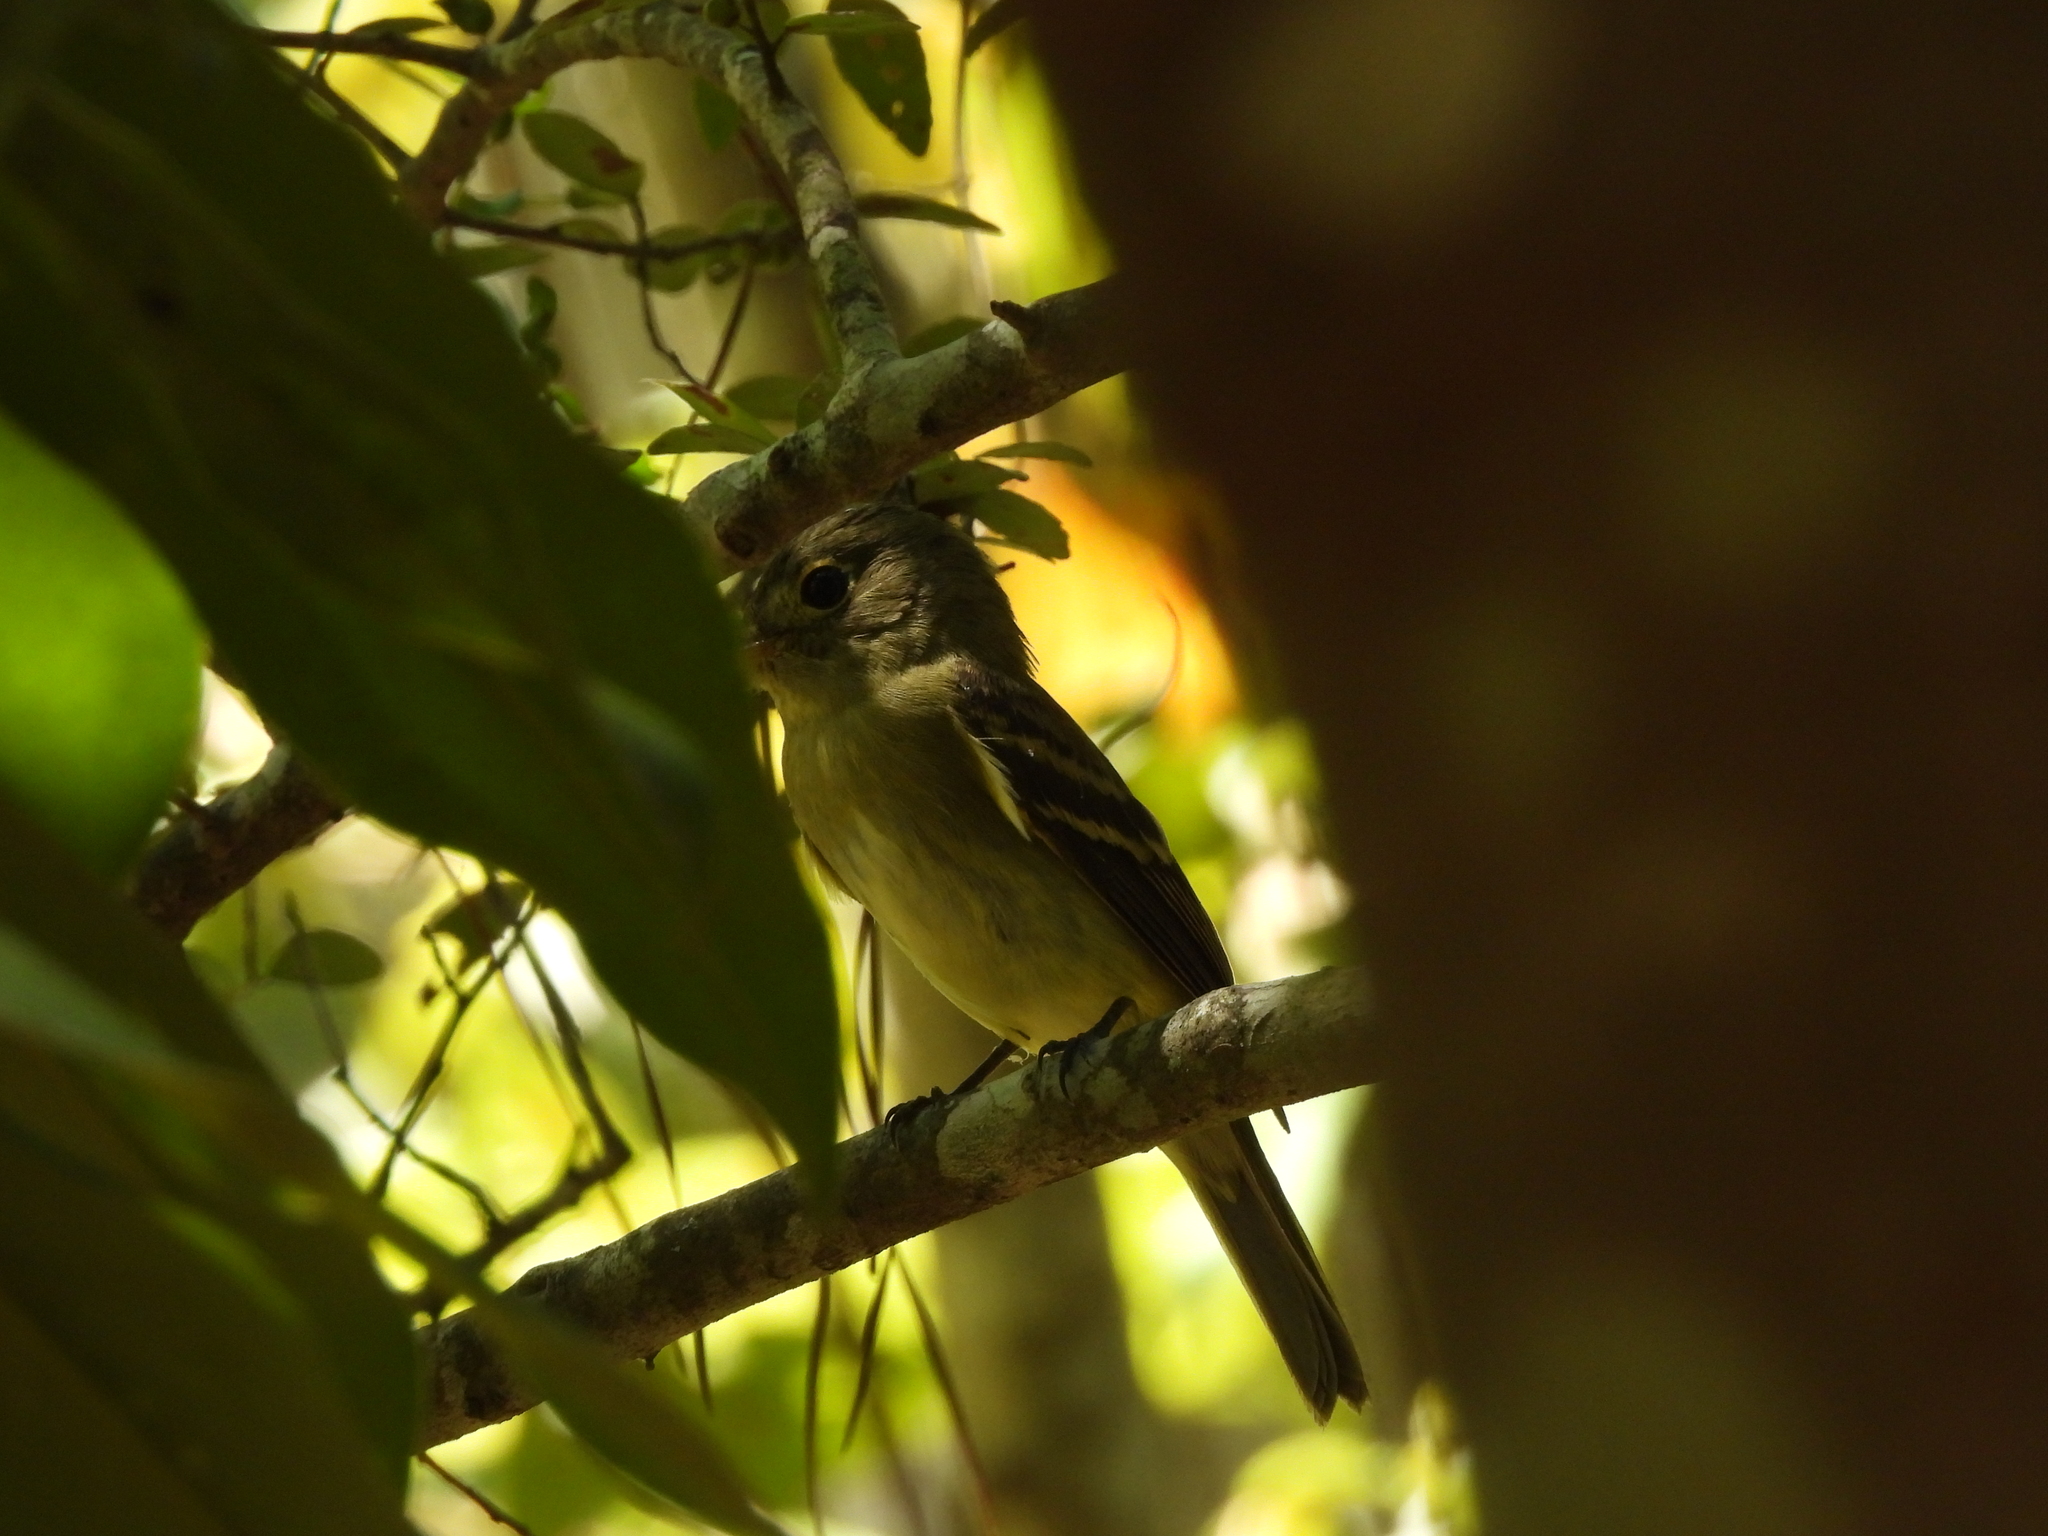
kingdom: Animalia
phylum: Chordata
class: Aves
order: Passeriformes
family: Tyrannidae
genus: Empidonax
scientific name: Empidonax virescens
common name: Acadian flycatcher
